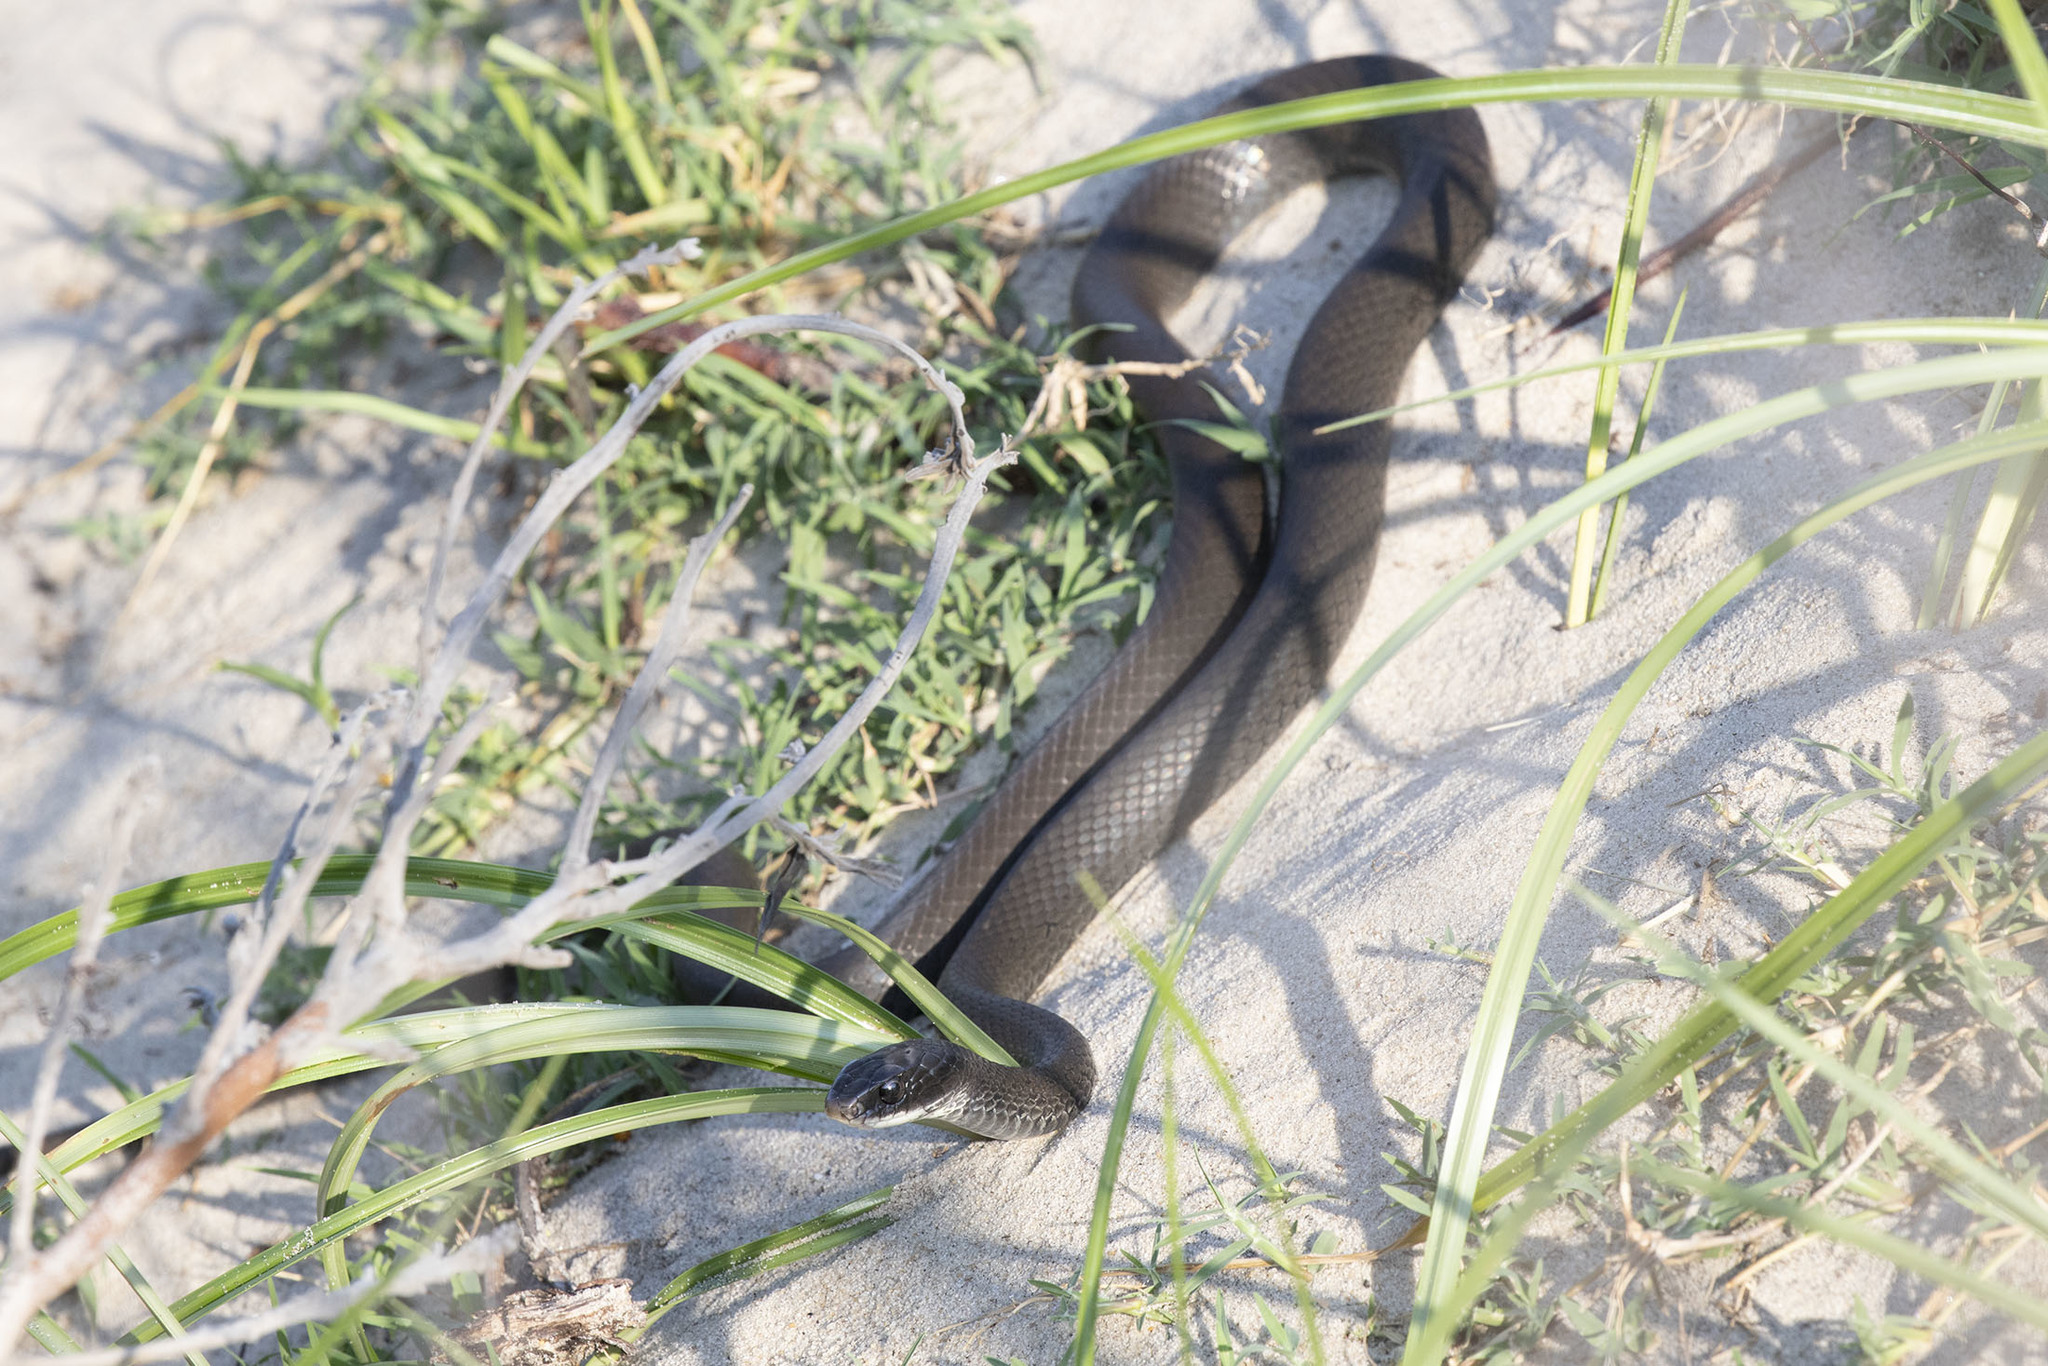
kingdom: Animalia
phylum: Chordata
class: Squamata
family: Colubridae
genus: Coluber
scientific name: Coluber constrictor
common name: Eastern racer
